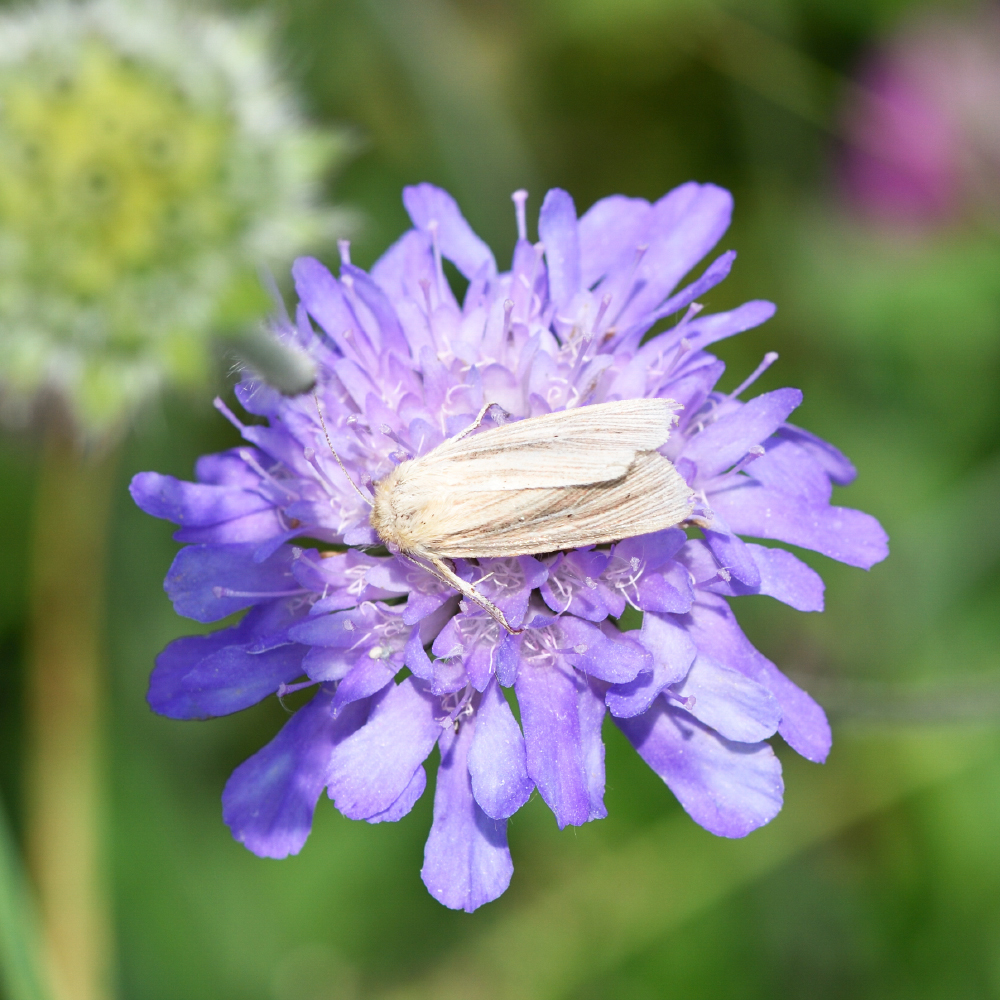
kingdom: Animalia
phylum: Arthropoda
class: Insecta
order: Lepidoptera
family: Noctuidae
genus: Mythimna
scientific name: Mythimna impura
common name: Smoky wainscot
